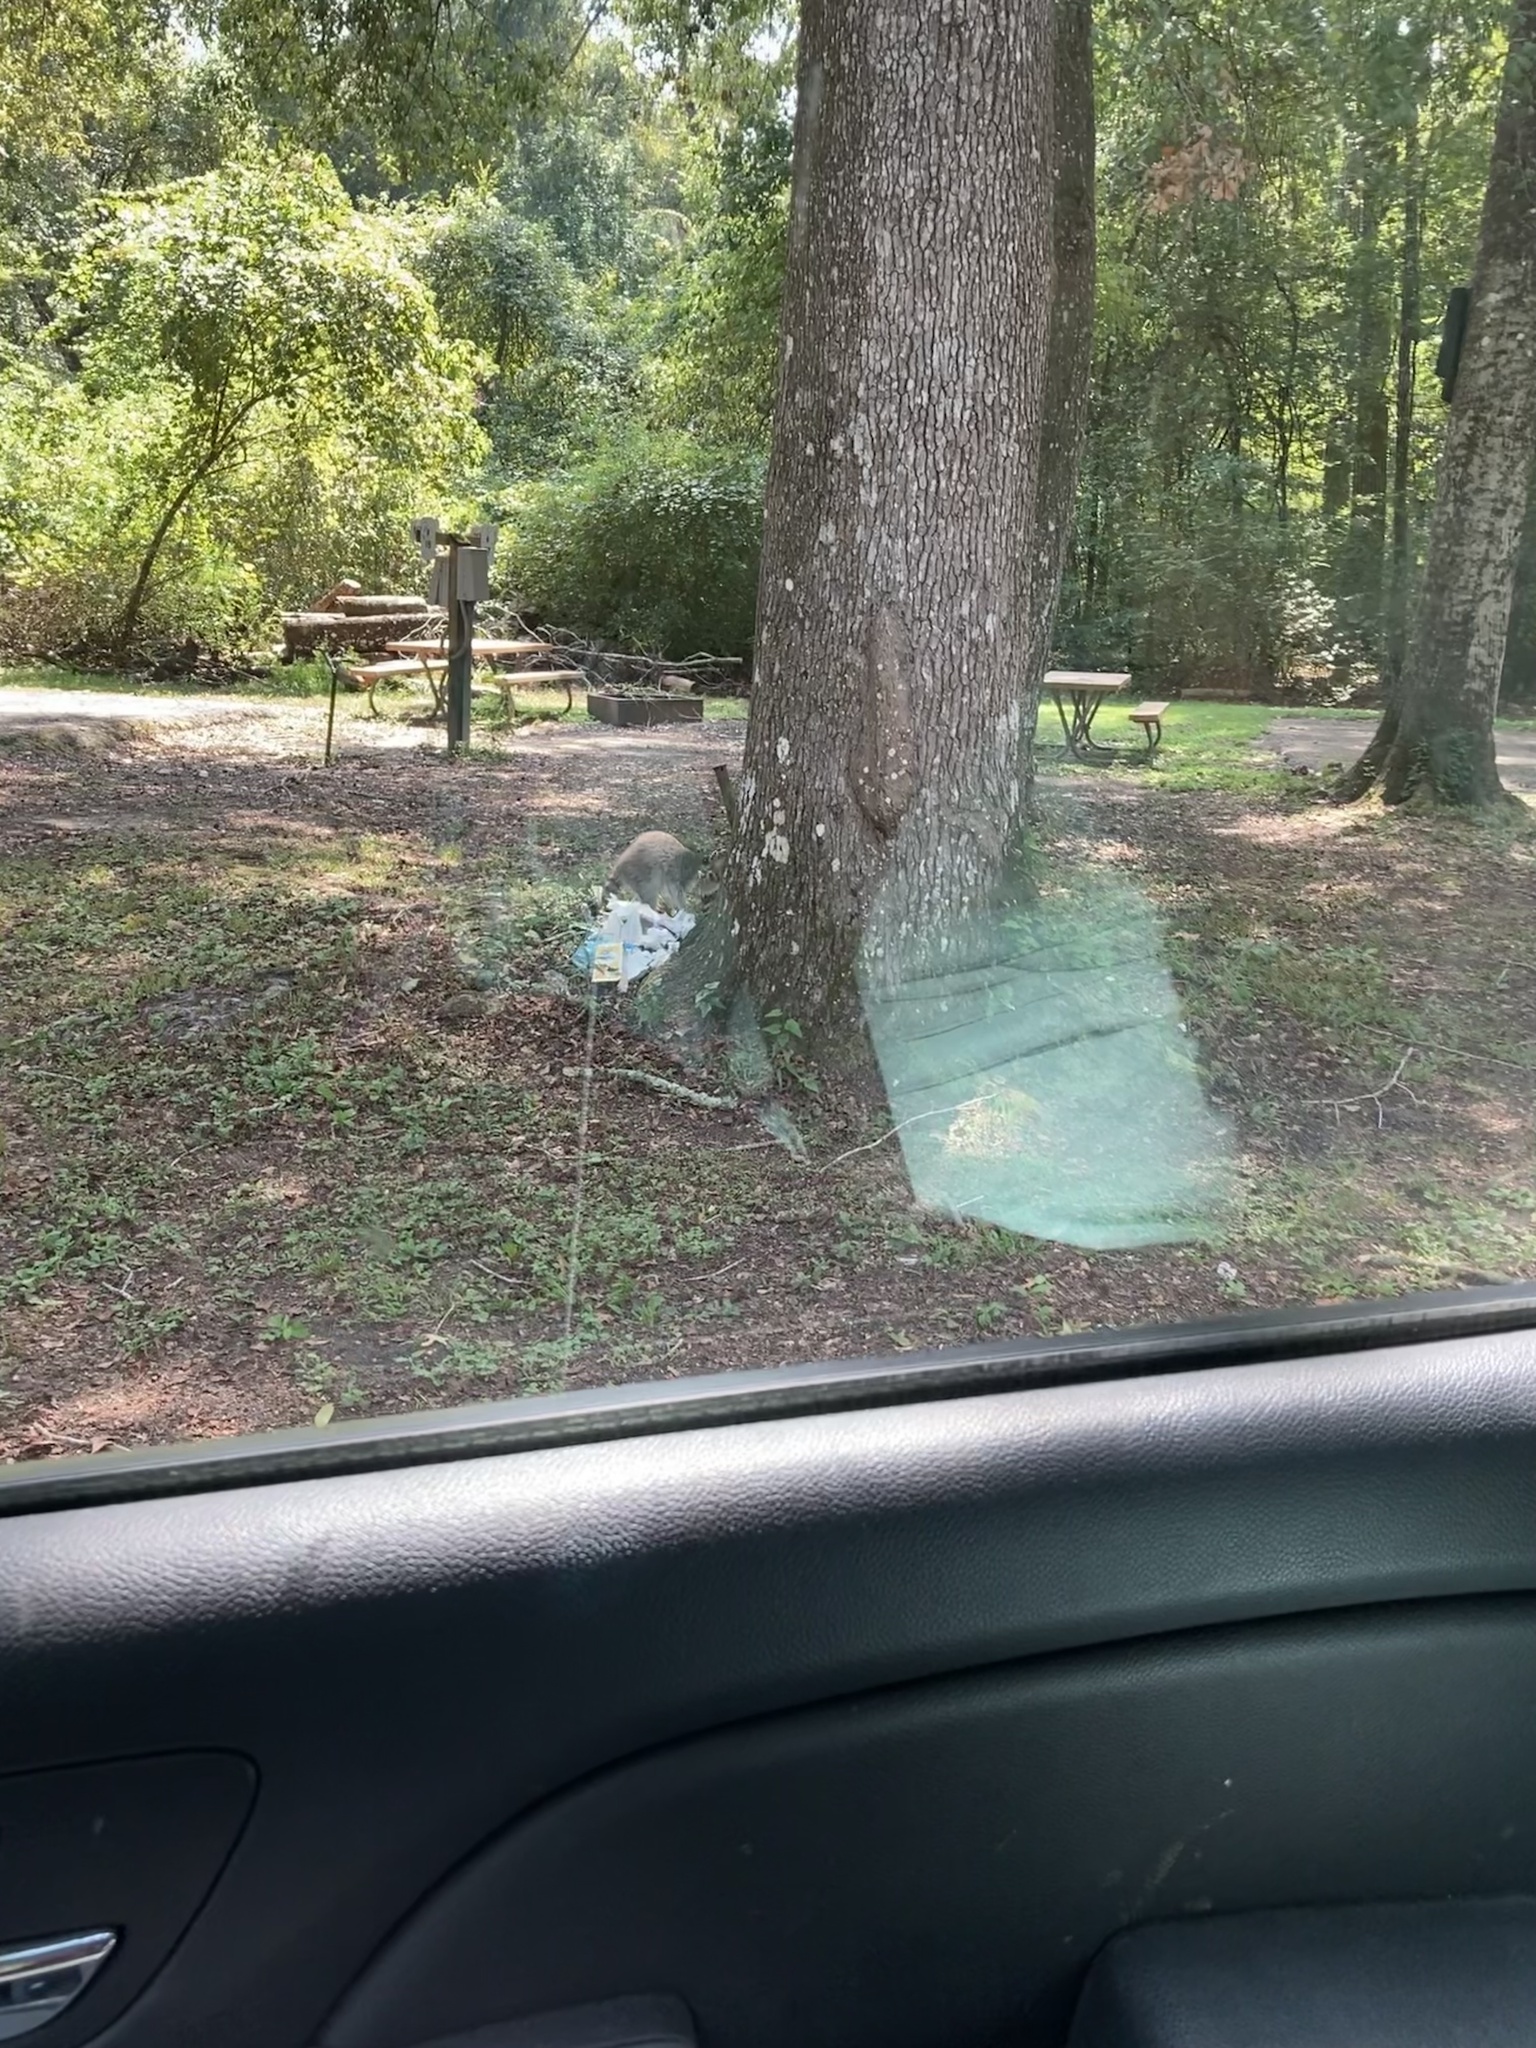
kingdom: Animalia
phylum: Chordata
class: Mammalia
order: Carnivora
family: Procyonidae
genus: Procyon
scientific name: Procyon lotor
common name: Raccoon
